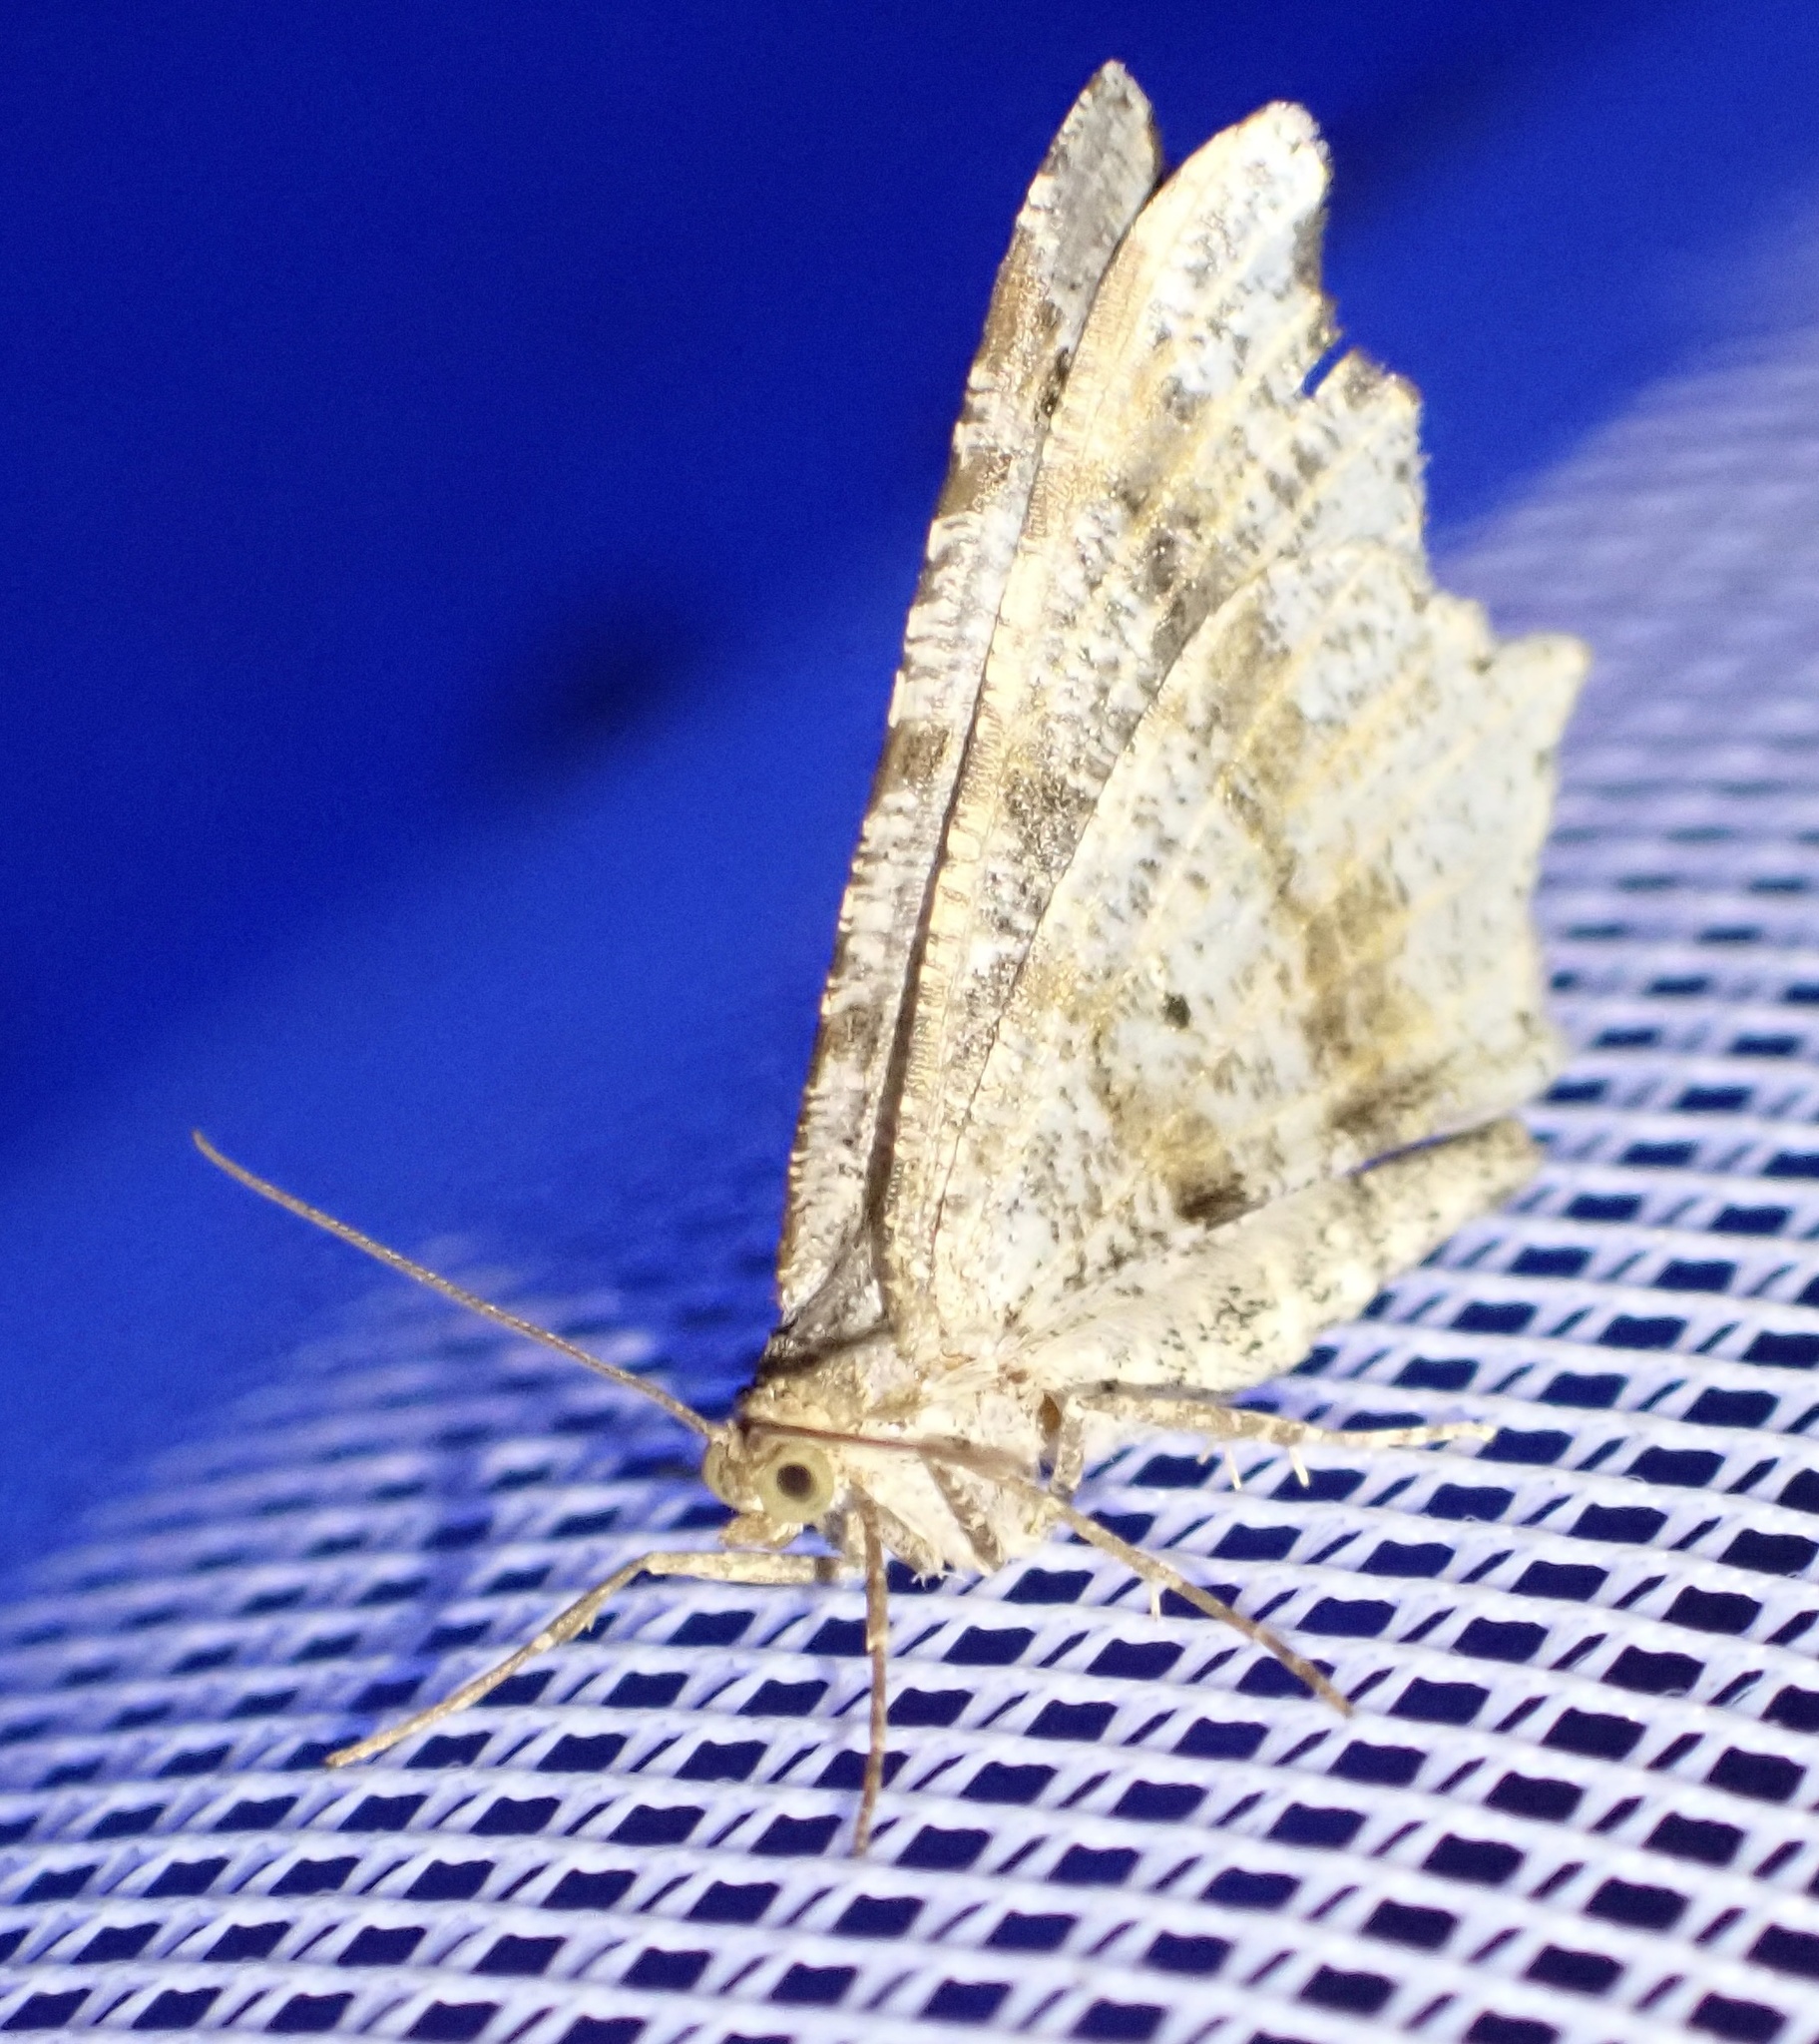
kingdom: Animalia
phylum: Arthropoda
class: Insecta
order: Lepidoptera
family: Geometridae
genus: Macaria
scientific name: Macaria alternata
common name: Sharp-angled peacock
